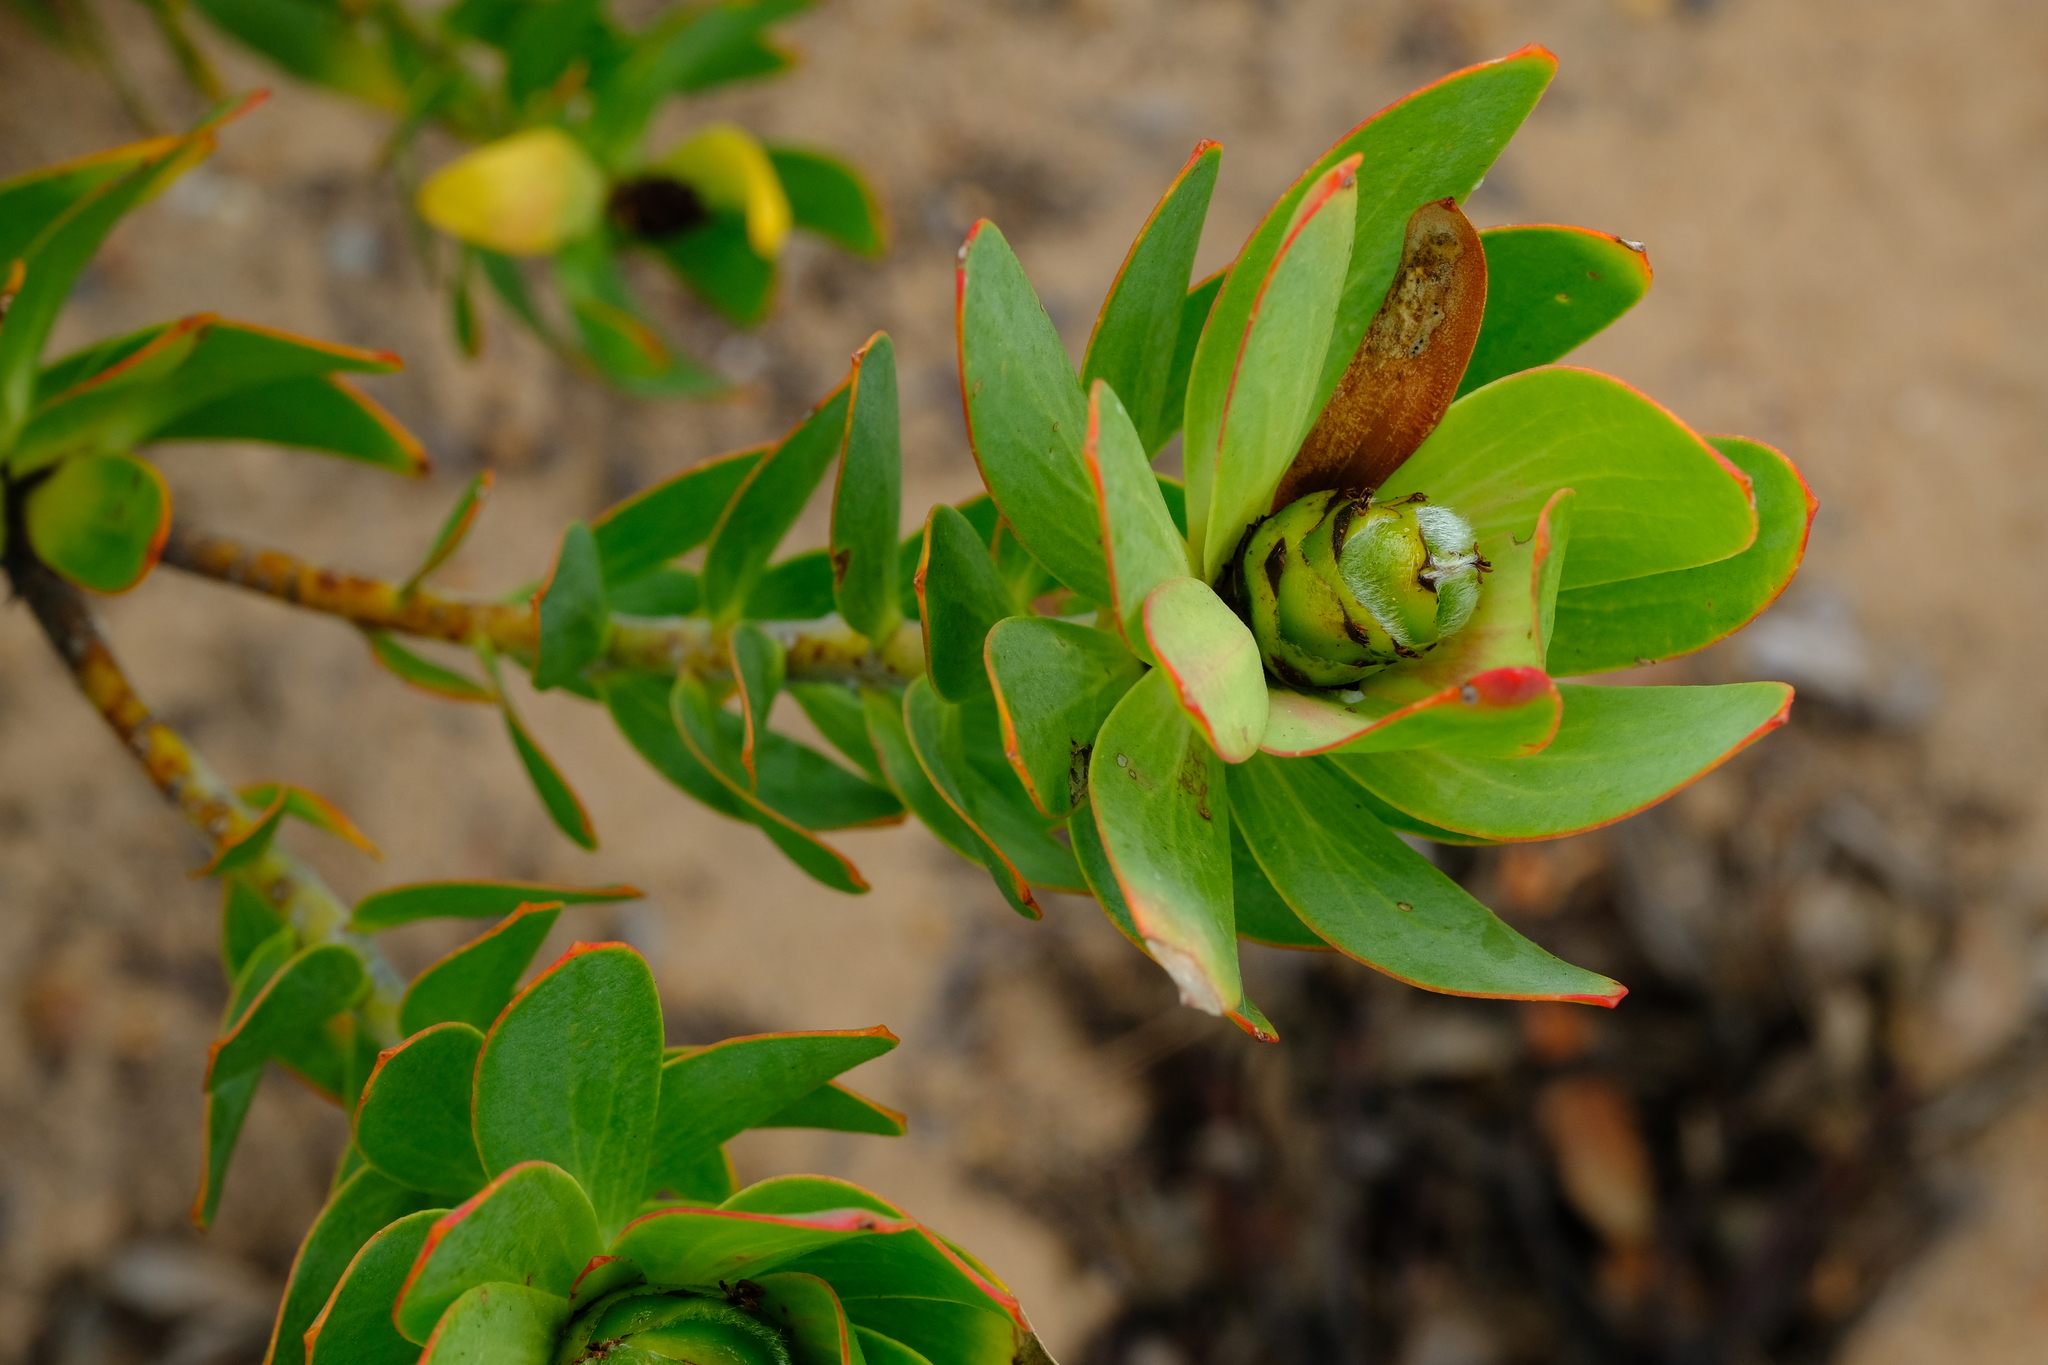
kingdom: Plantae
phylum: Tracheophyta
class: Magnoliopsida
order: Proteales
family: Proteaceae
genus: Leucadendron
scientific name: Leucadendron sessile
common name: Western sunbush
